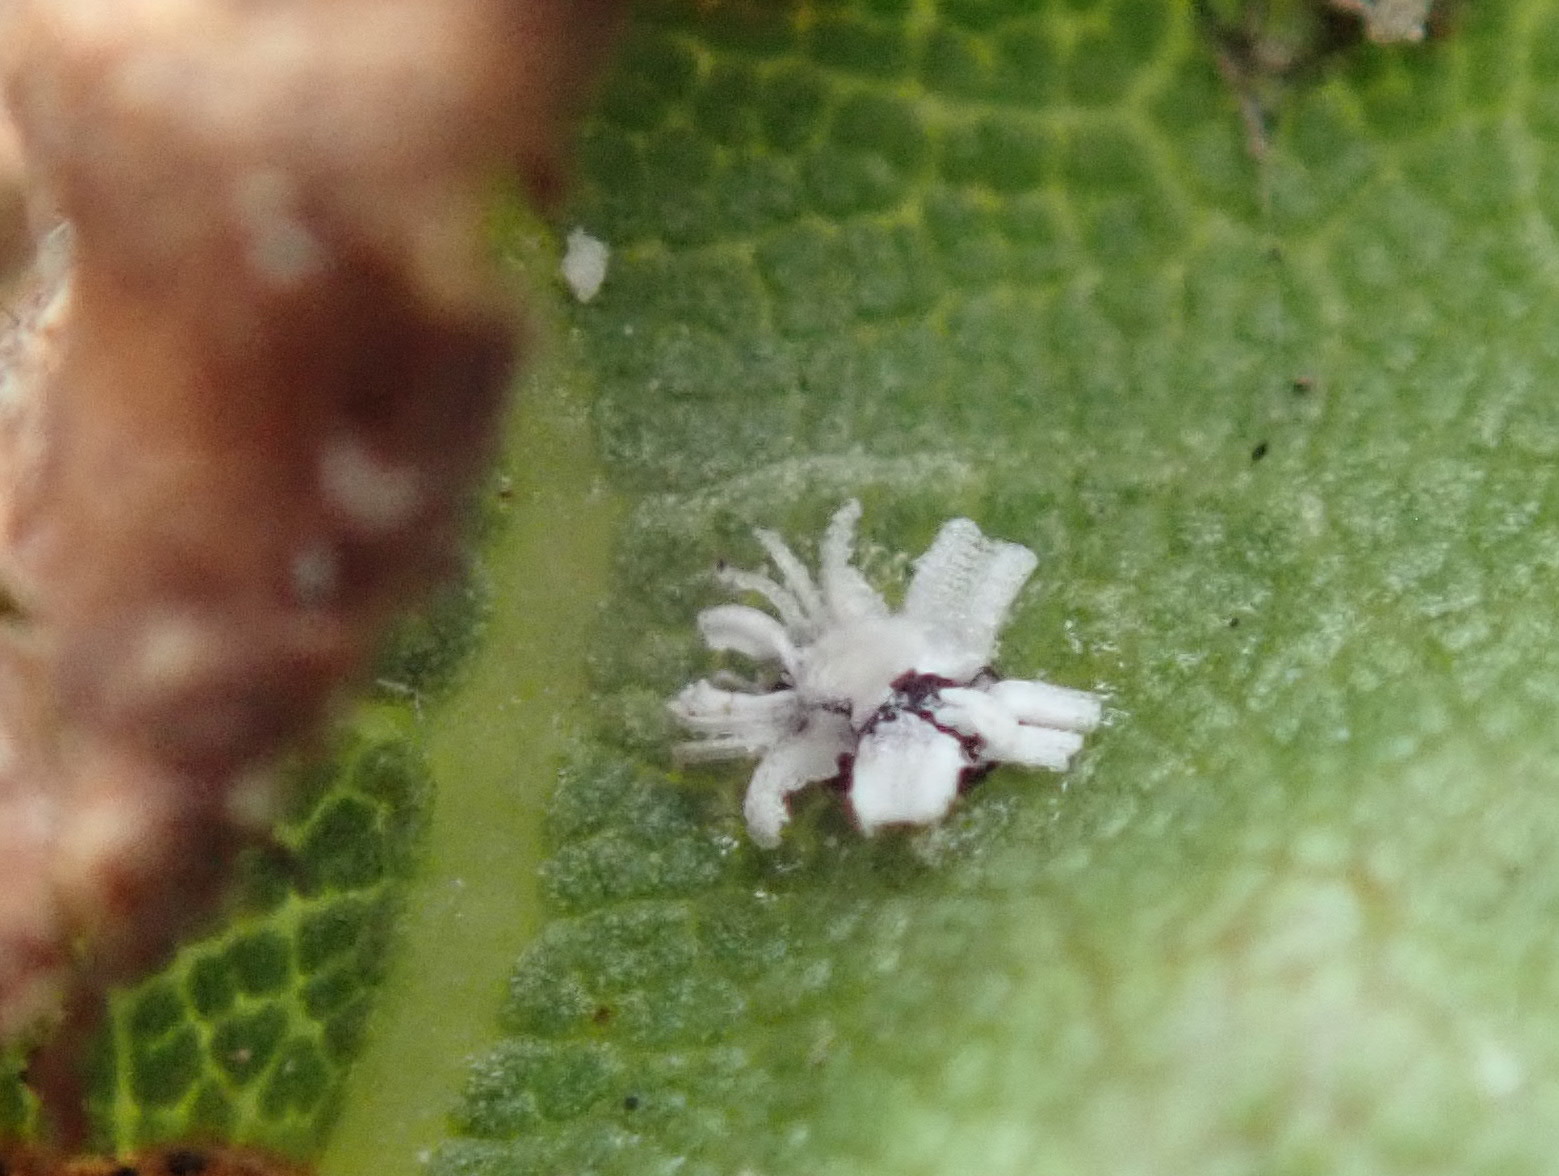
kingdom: Animalia
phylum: Arthropoda
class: Insecta
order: Hemiptera
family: Aleyrodidae
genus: Aleuroplatus
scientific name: Aleuroplatus coronata
